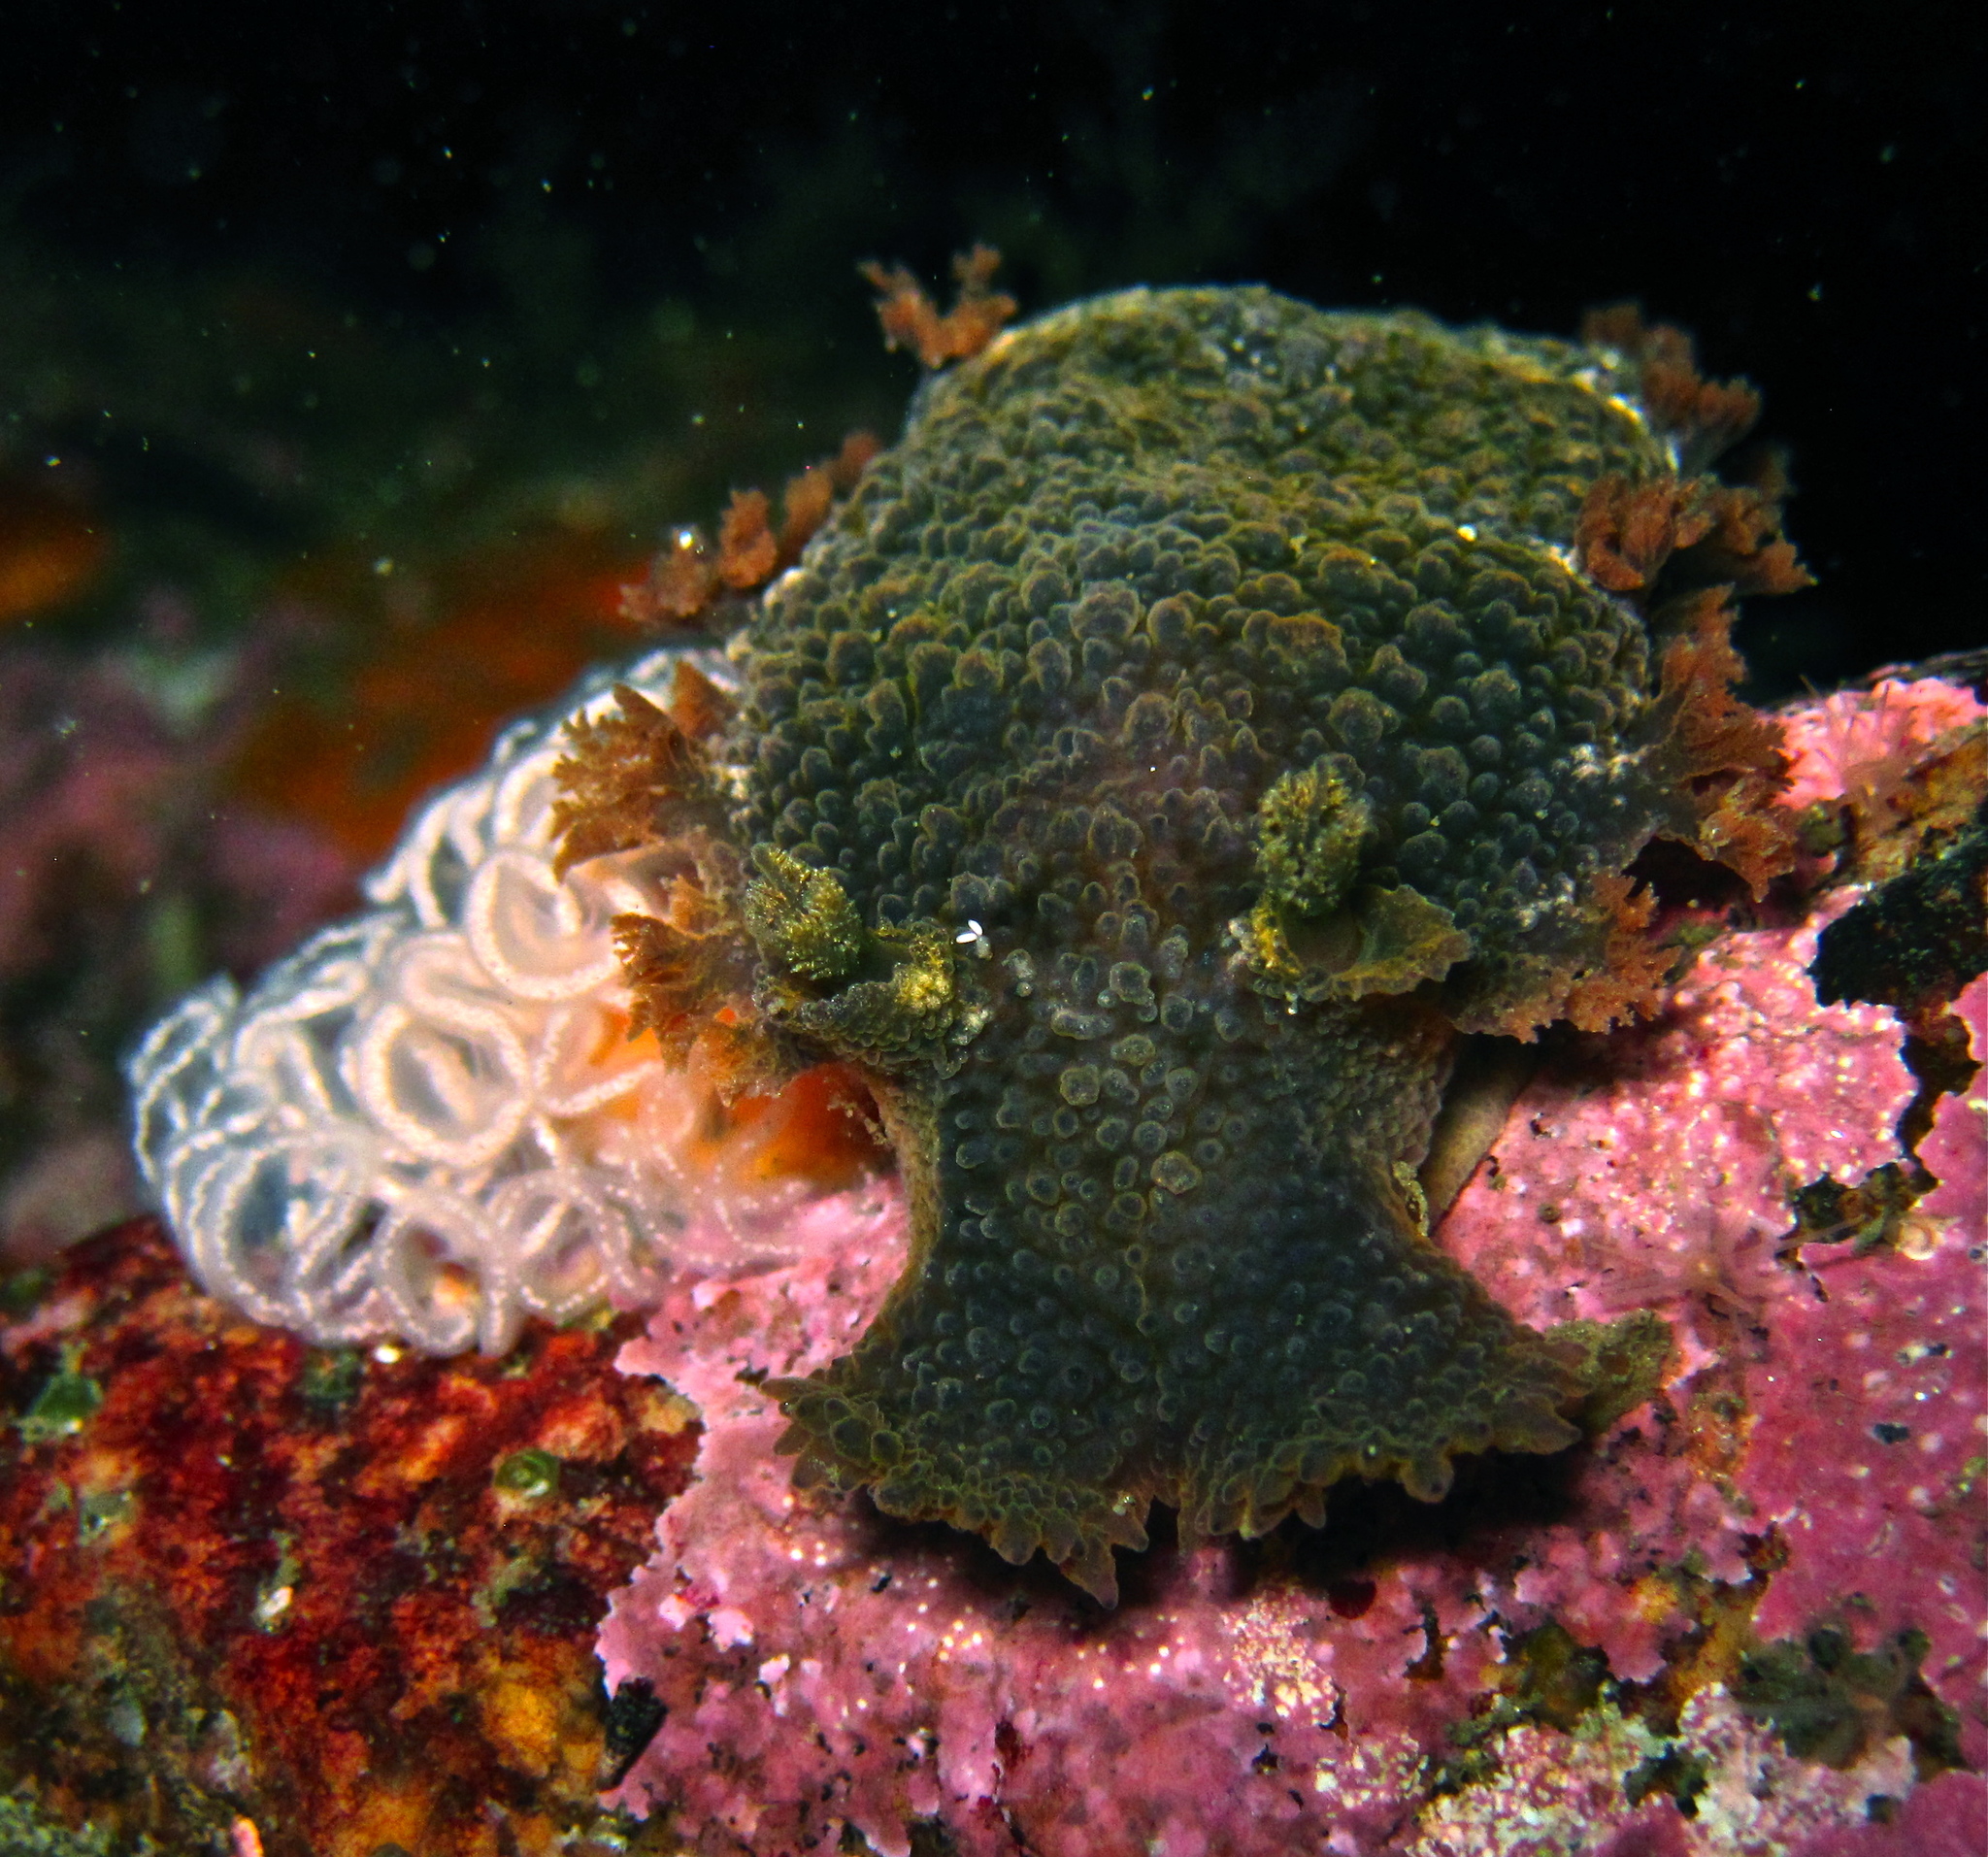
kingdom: Animalia
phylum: Mollusca
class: Gastropoda
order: Nudibranchia
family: Tritoniidae
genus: Tritonia
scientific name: Tritonia hombergii
